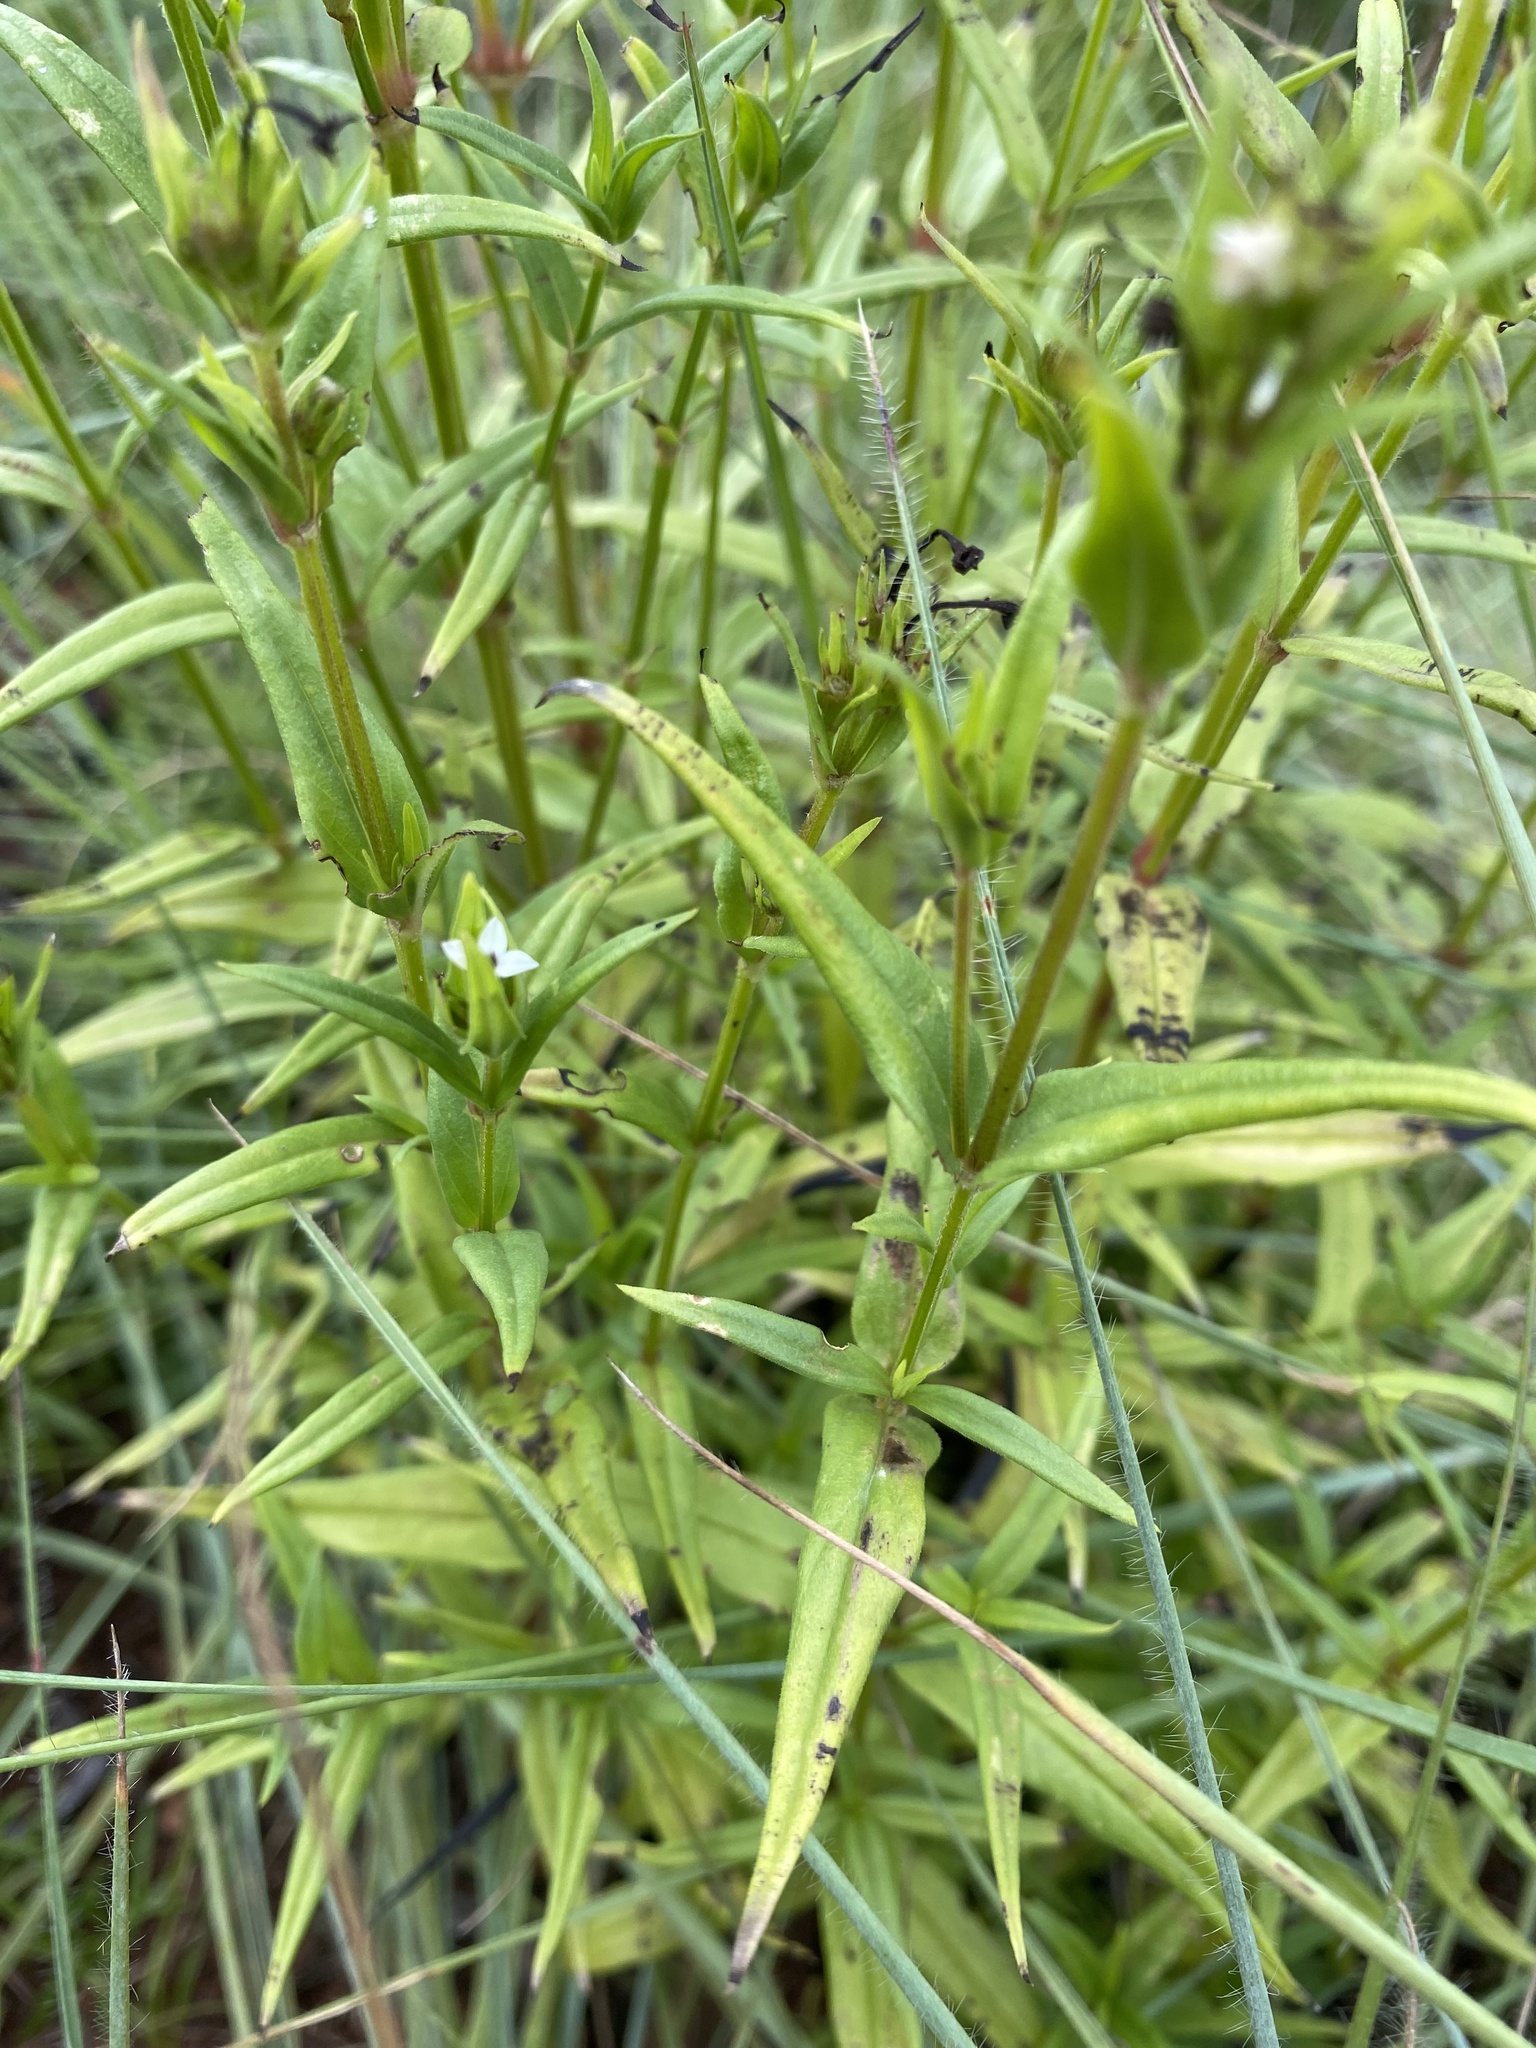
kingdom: Plantae
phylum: Tracheophyta
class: Magnoliopsida
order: Gentianales
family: Rubiaceae
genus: Conostomium
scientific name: Conostomium natalense
